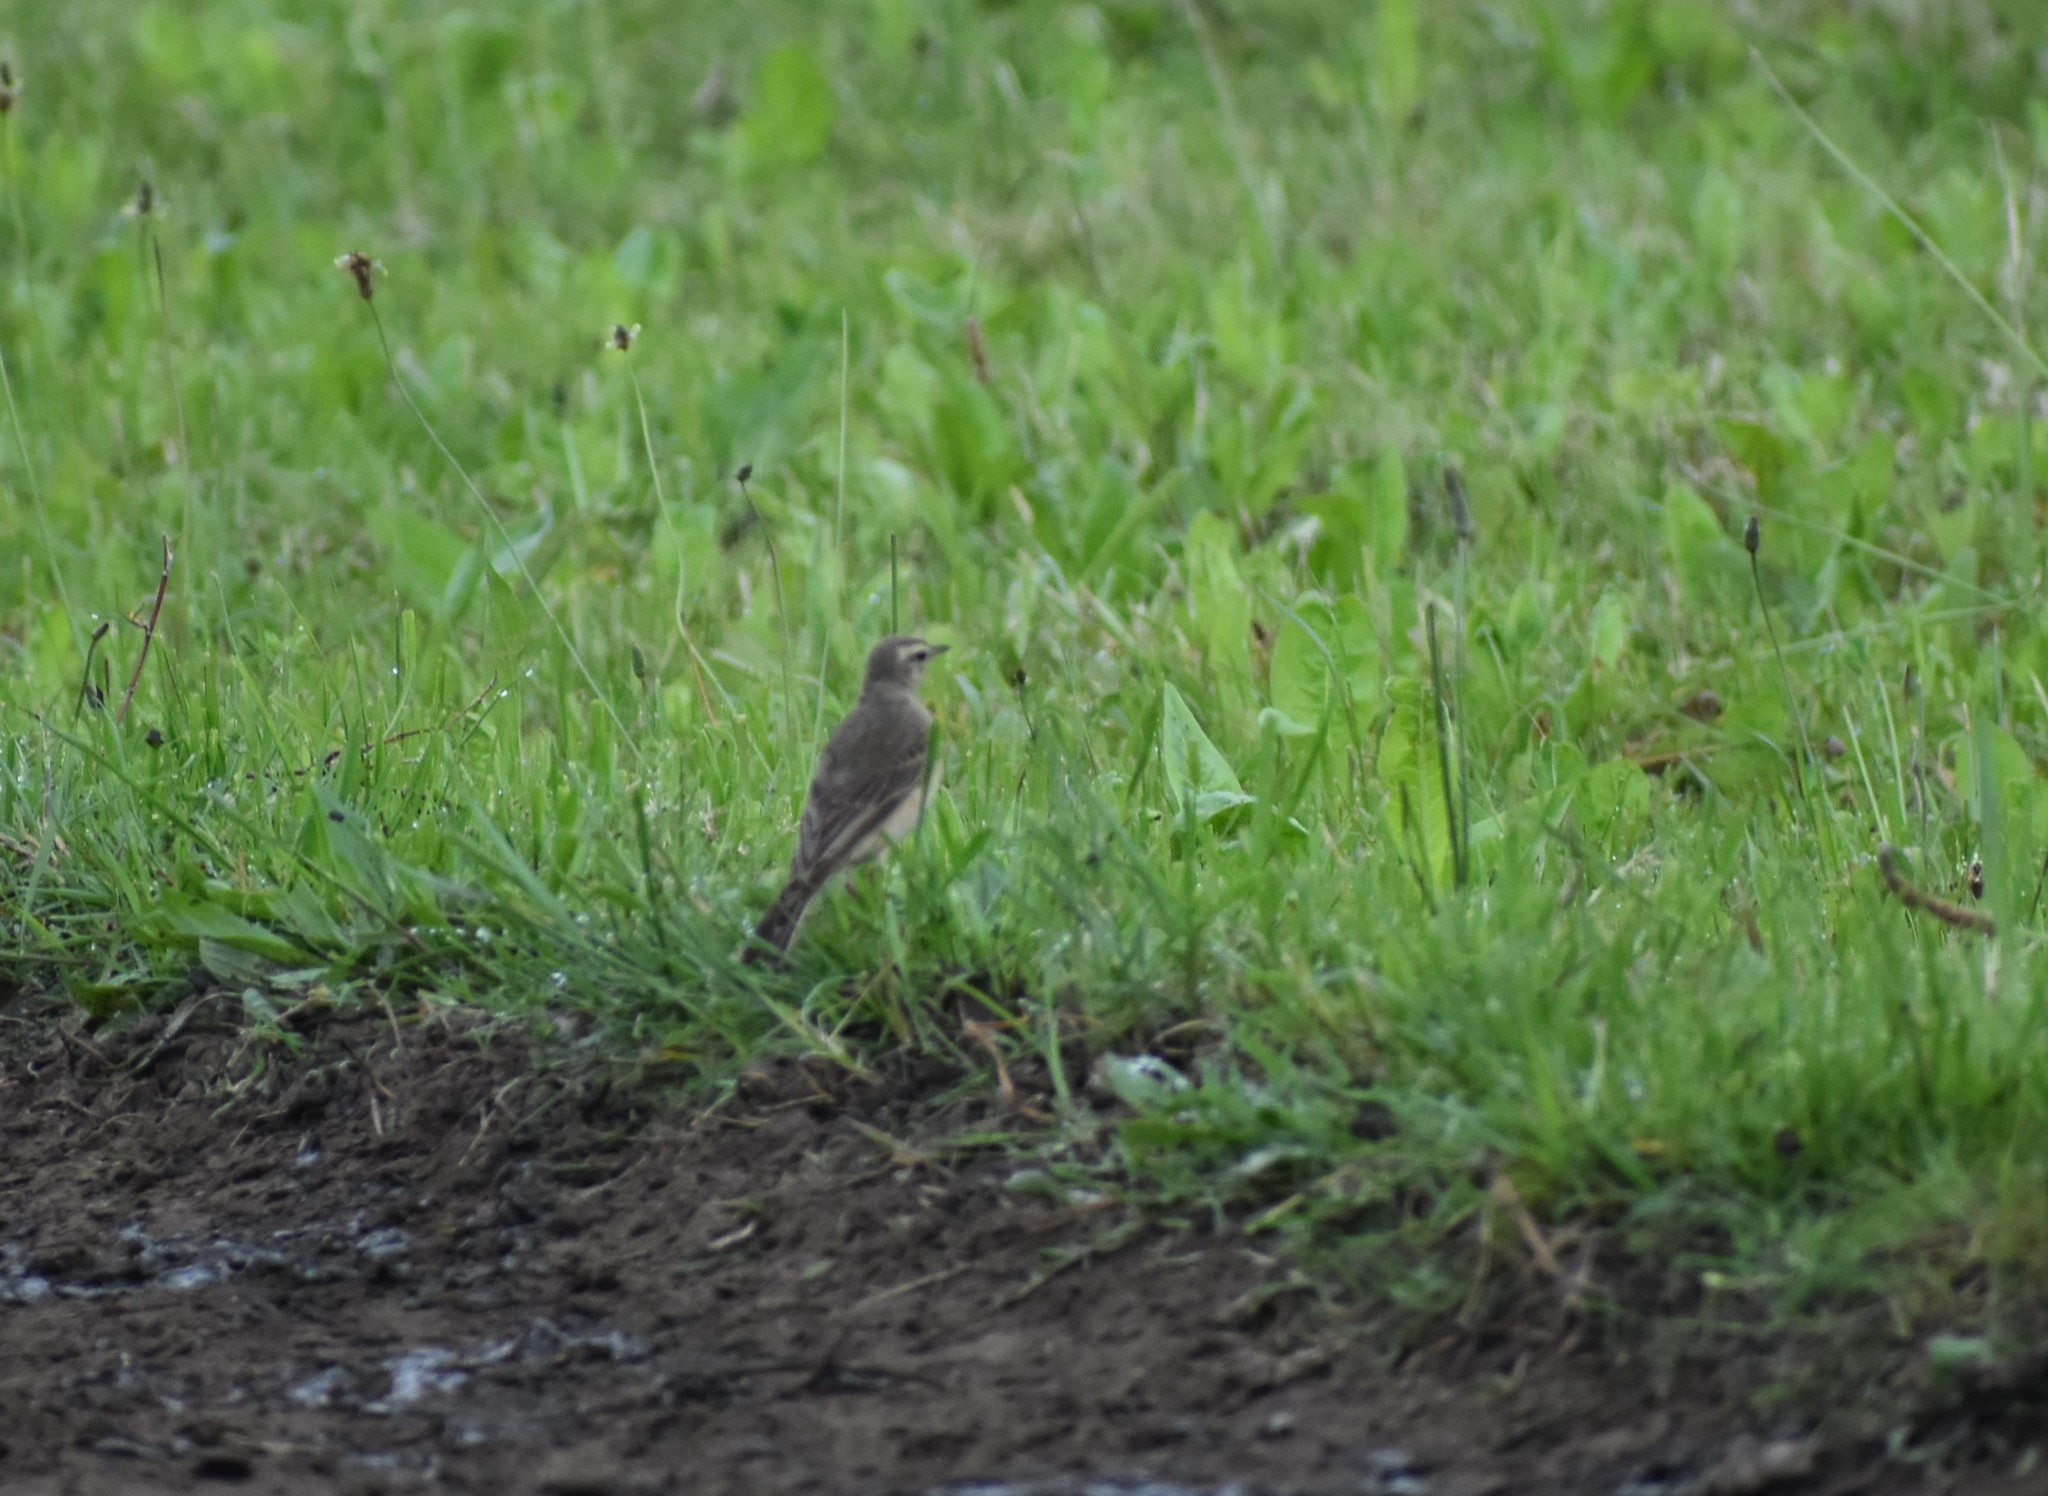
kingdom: Animalia
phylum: Chordata
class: Aves
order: Passeriformes
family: Motacillidae
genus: Anthus
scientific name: Anthus leucophrys
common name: Plain-backed pipit
